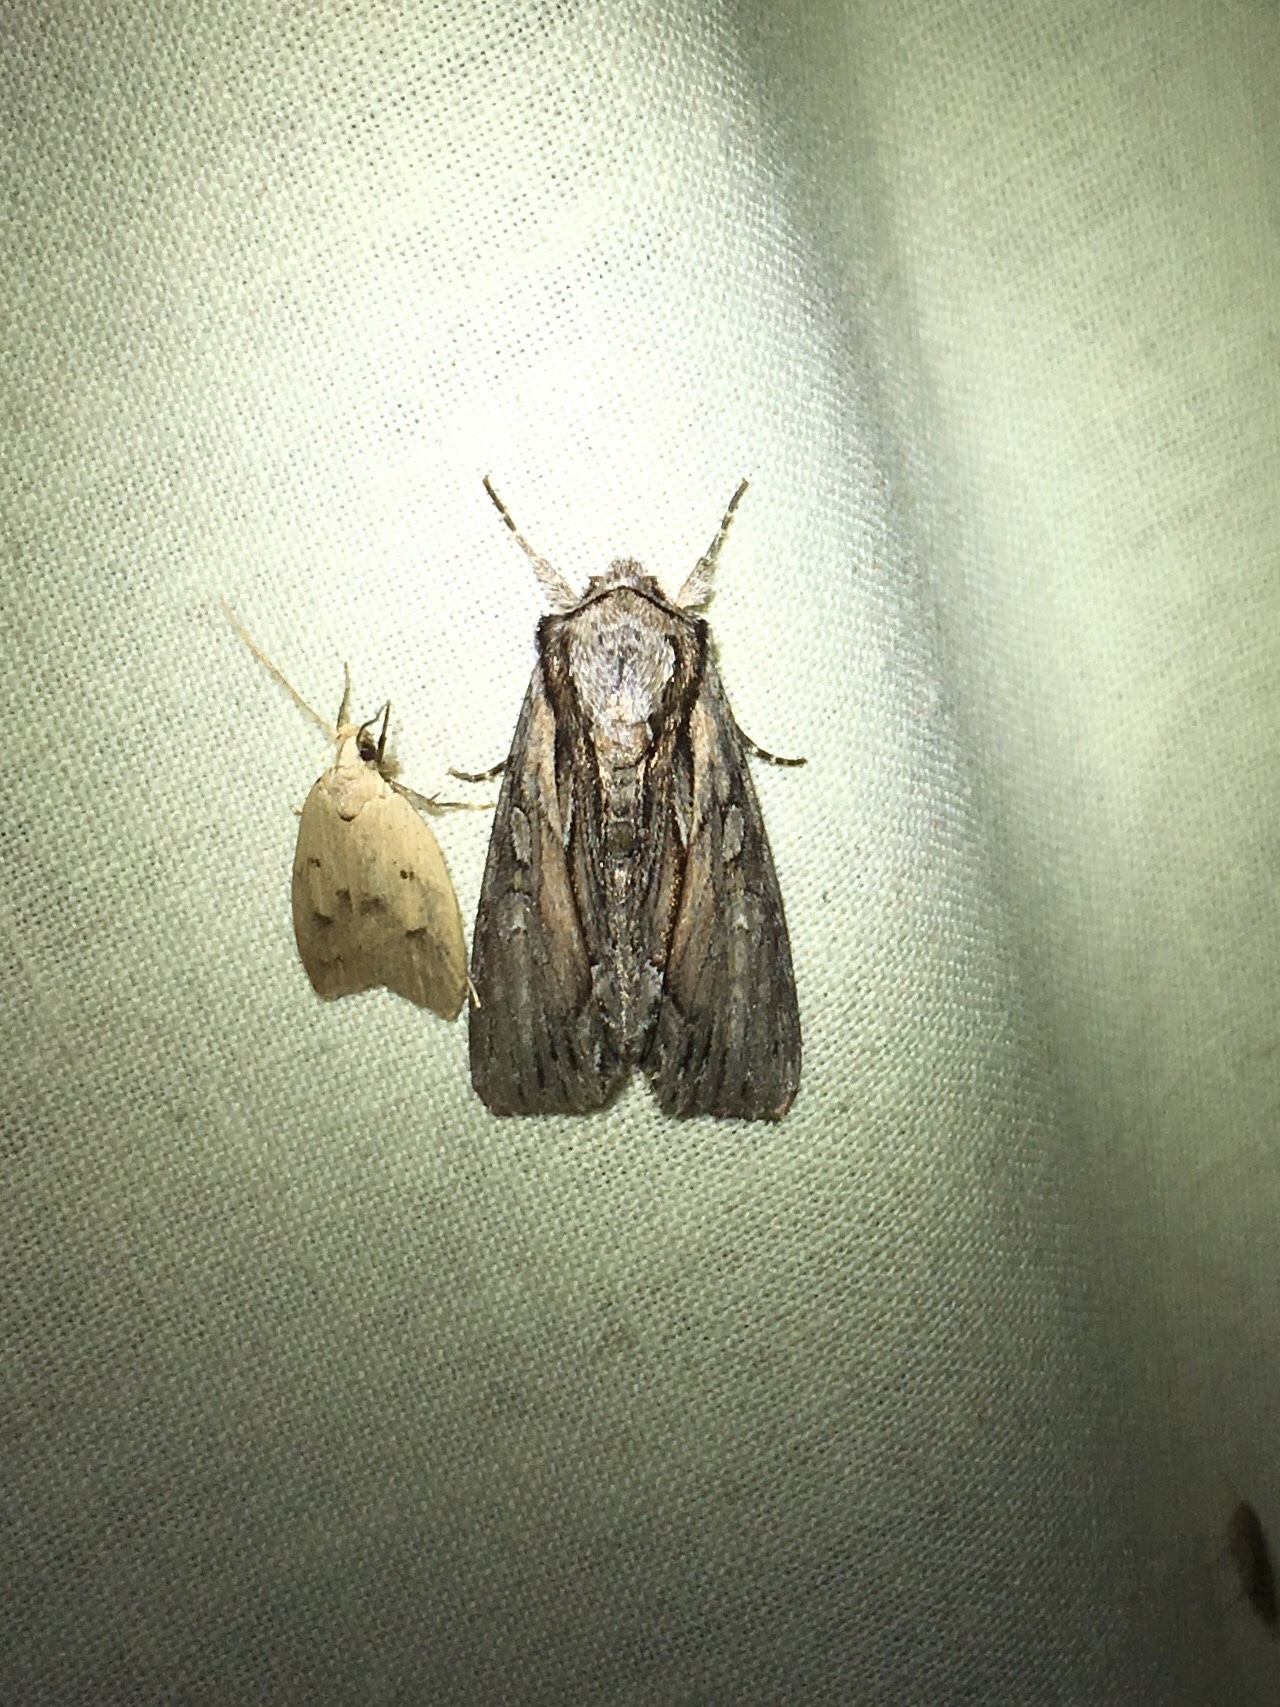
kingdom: Animalia
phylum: Arthropoda
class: Insecta
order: Lepidoptera
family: Noctuidae
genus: Hyppa
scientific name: Hyppa xylinoides
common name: Common hyppa moth
